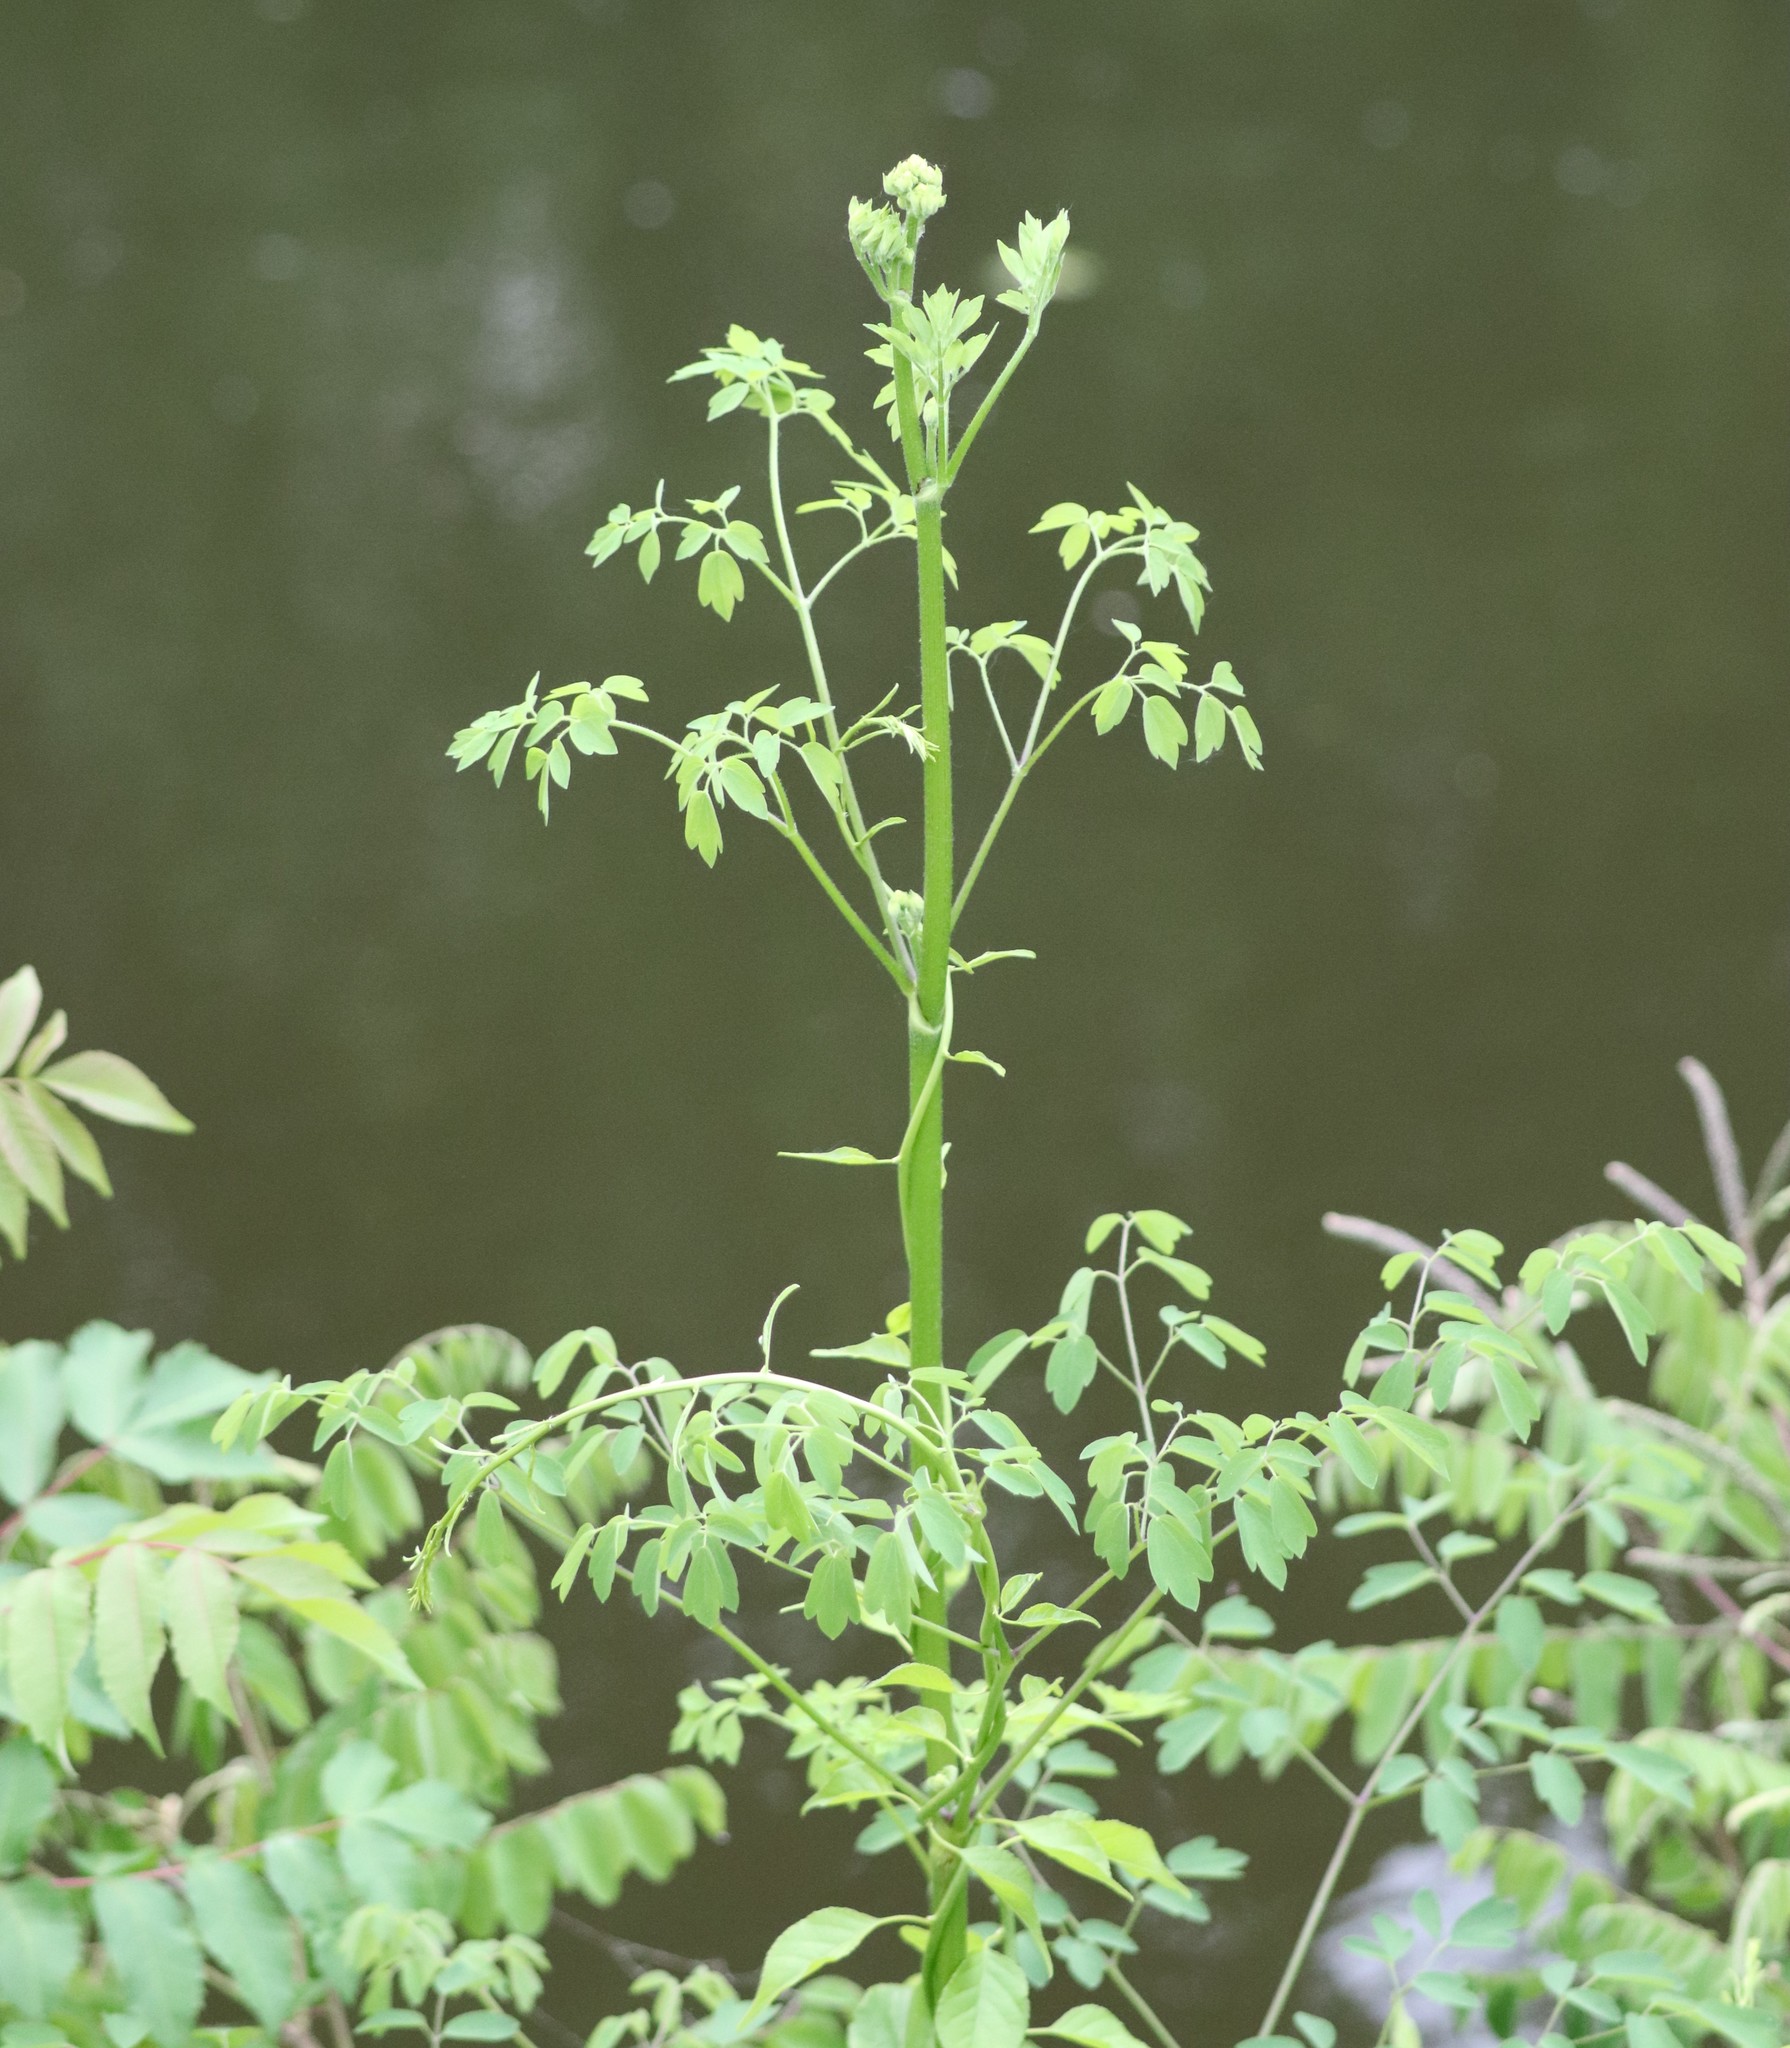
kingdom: Plantae
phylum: Tracheophyta
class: Magnoliopsida
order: Ranunculales
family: Ranunculaceae
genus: Thalictrum
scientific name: Thalictrum pubescens
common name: King-of-the-meadow
